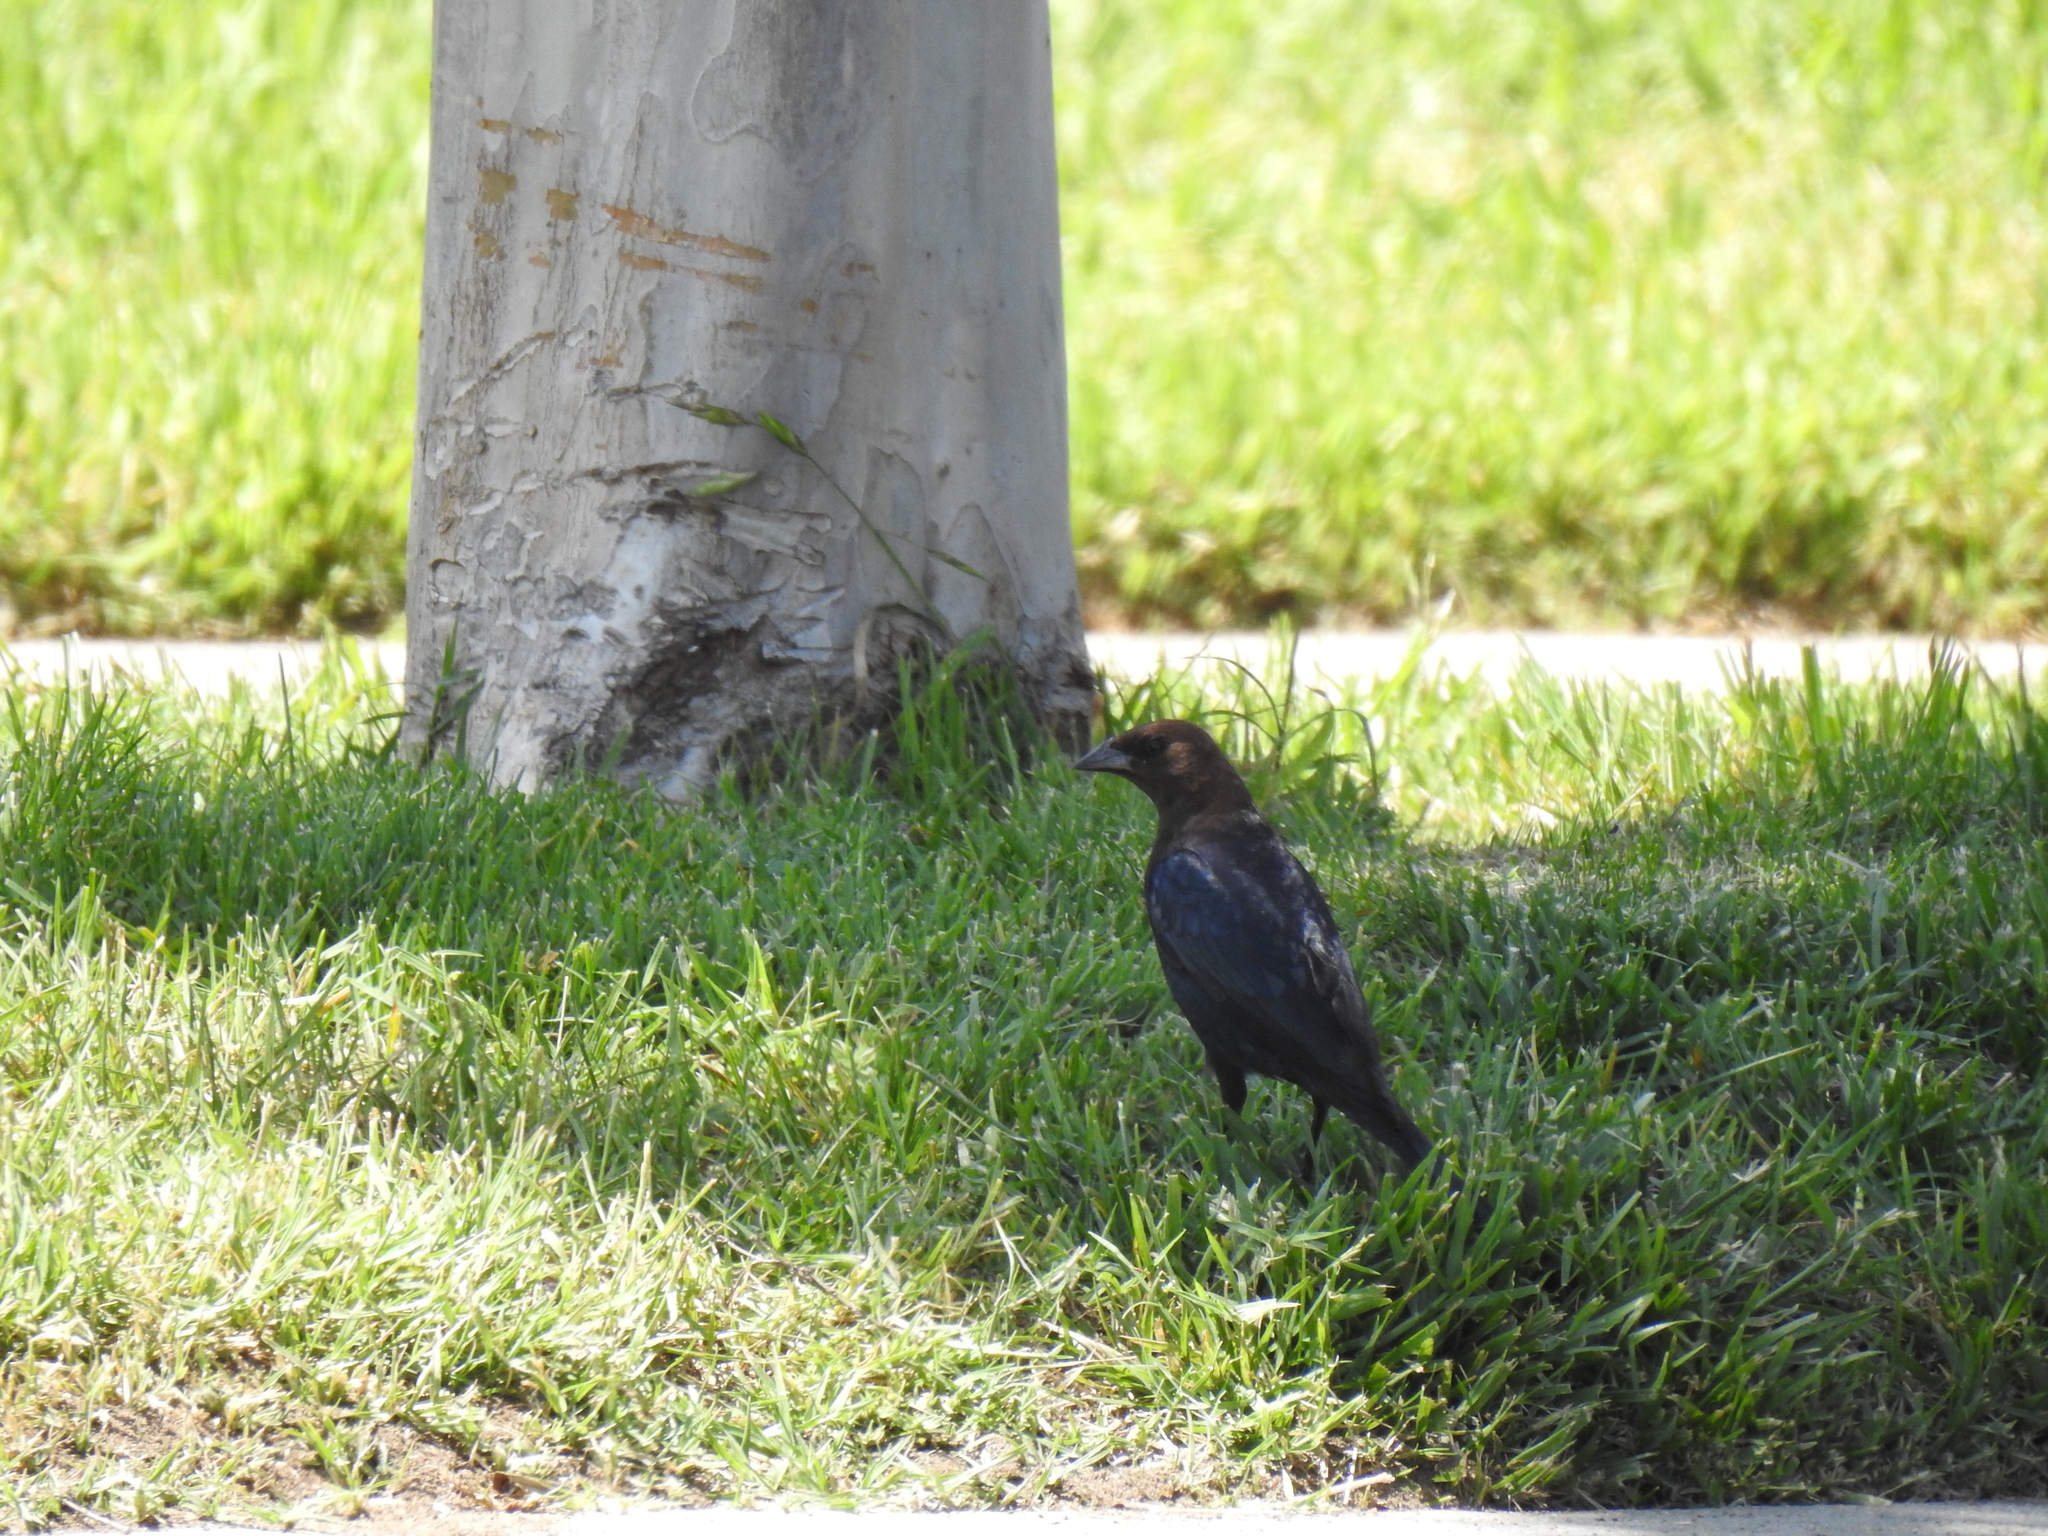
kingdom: Animalia
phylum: Chordata
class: Aves
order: Passeriformes
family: Icteridae
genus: Molothrus
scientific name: Molothrus ater
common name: Brown-headed cowbird
